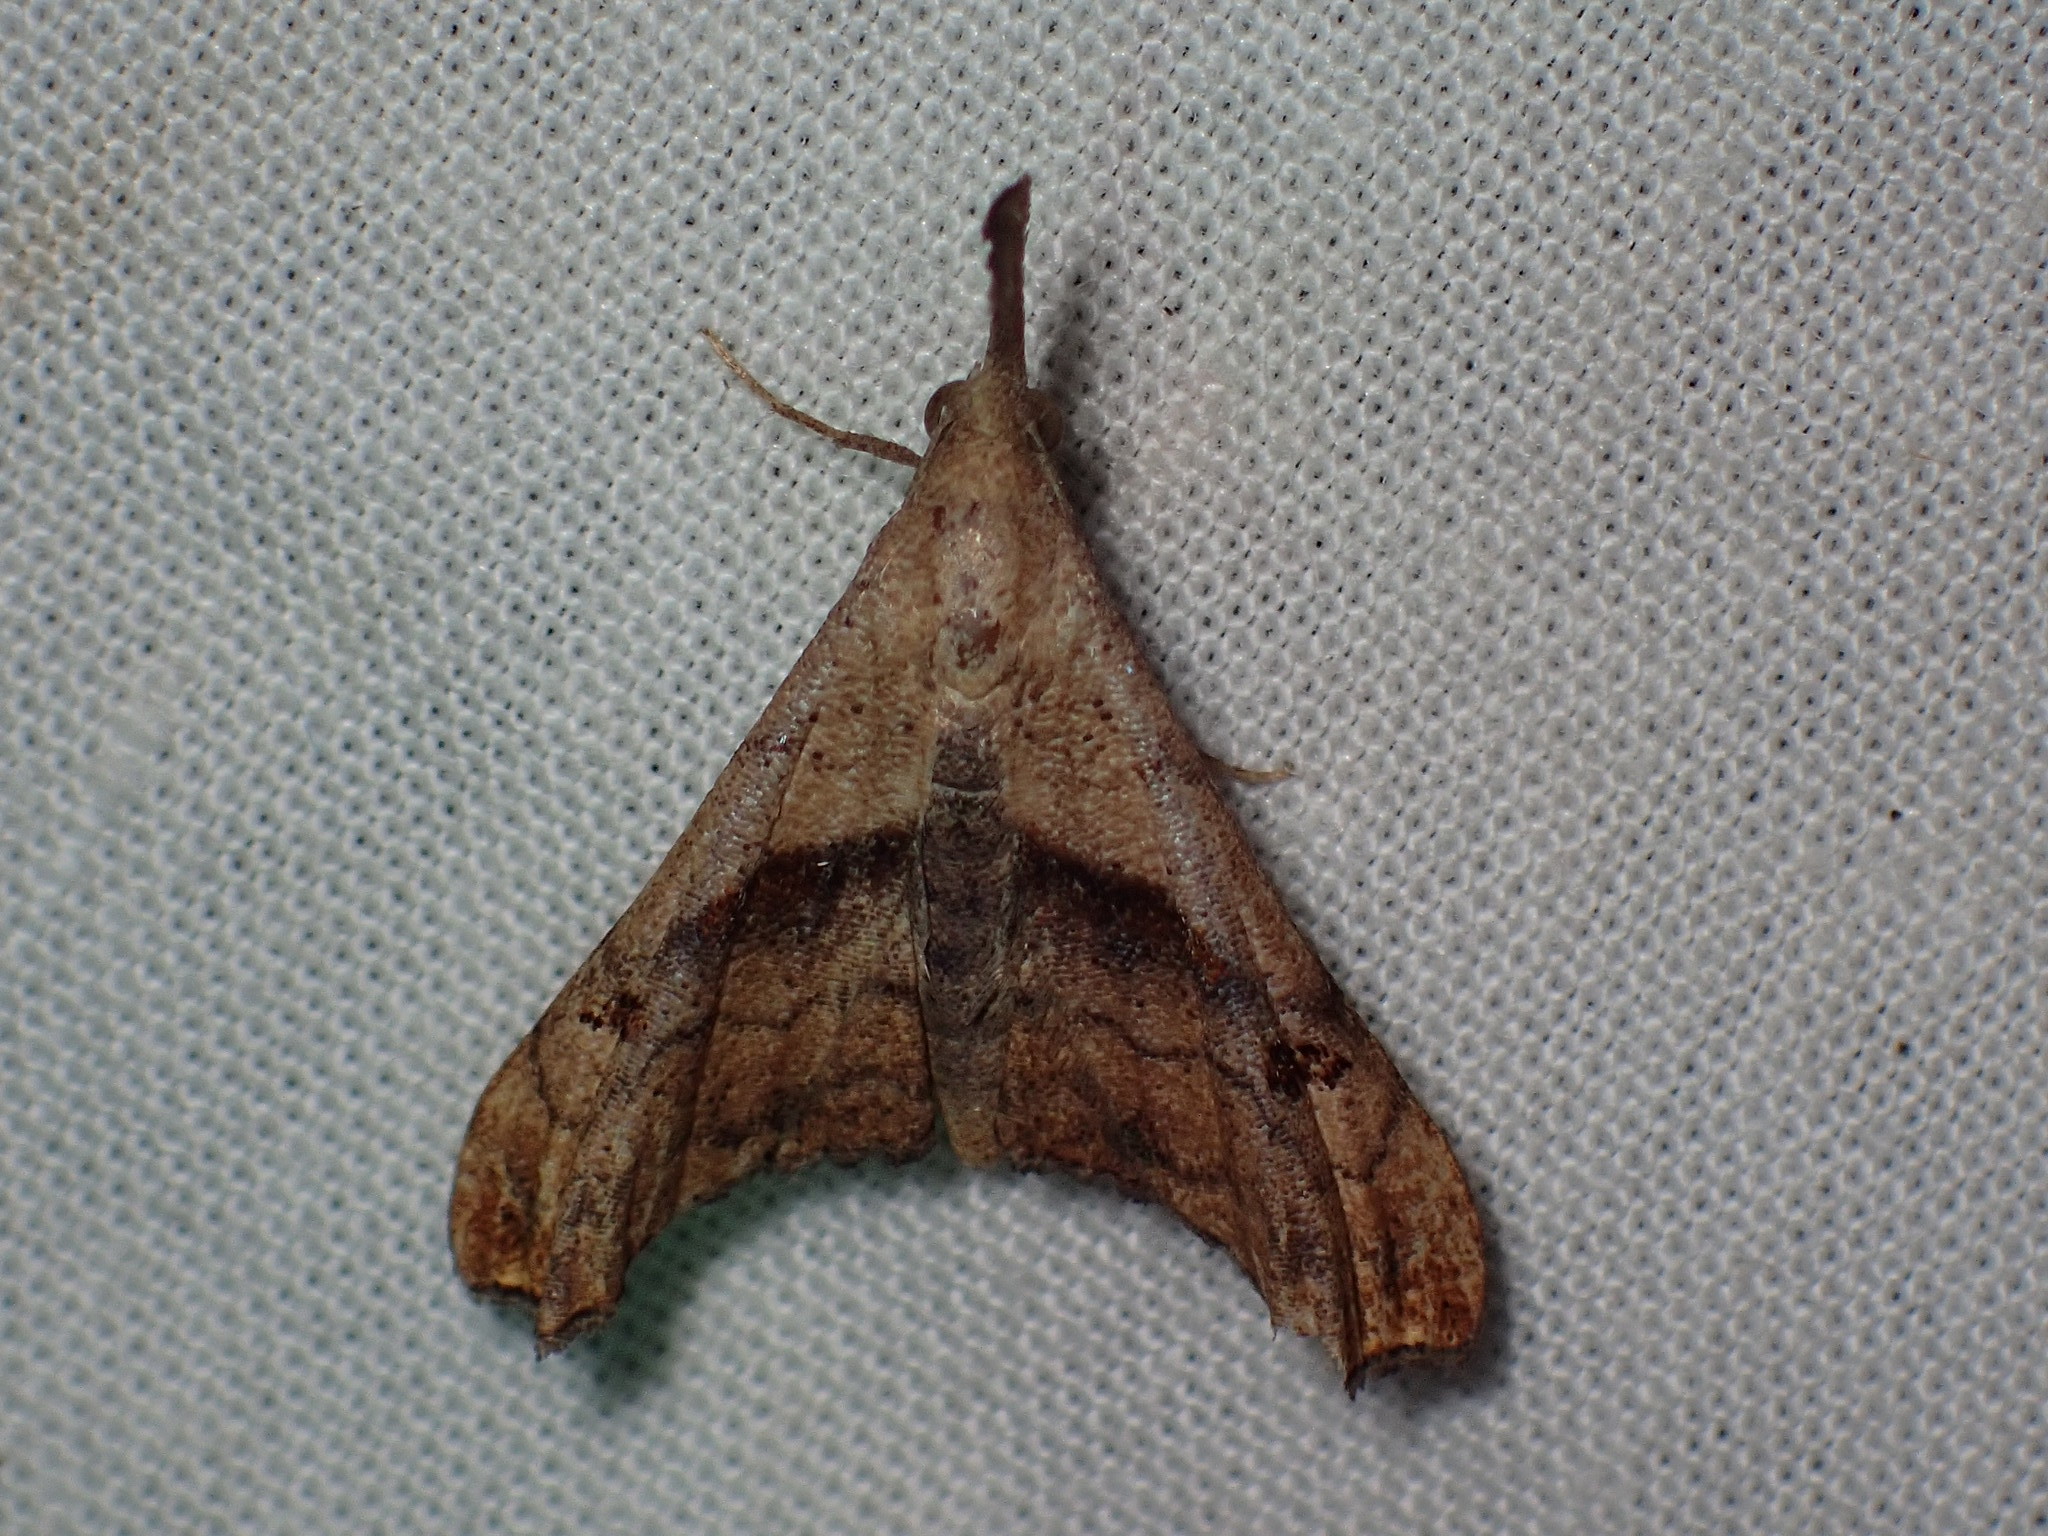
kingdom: Animalia
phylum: Arthropoda
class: Insecta
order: Lepidoptera
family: Erebidae
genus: Palthis
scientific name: Palthis angulalis
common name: Dark-spotted palthis moth
